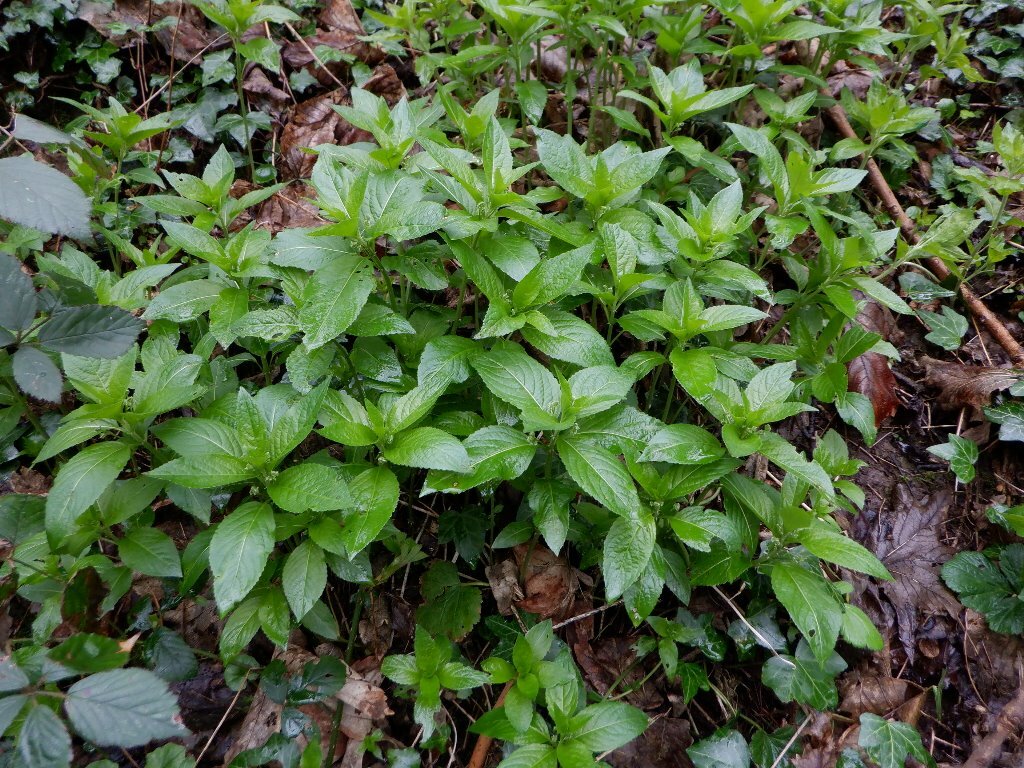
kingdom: Plantae
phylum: Tracheophyta
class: Magnoliopsida
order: Malpighiales
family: Euphorbiaceae
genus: Mercurialis
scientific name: Mercurialis perennis
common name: Dog mercury
